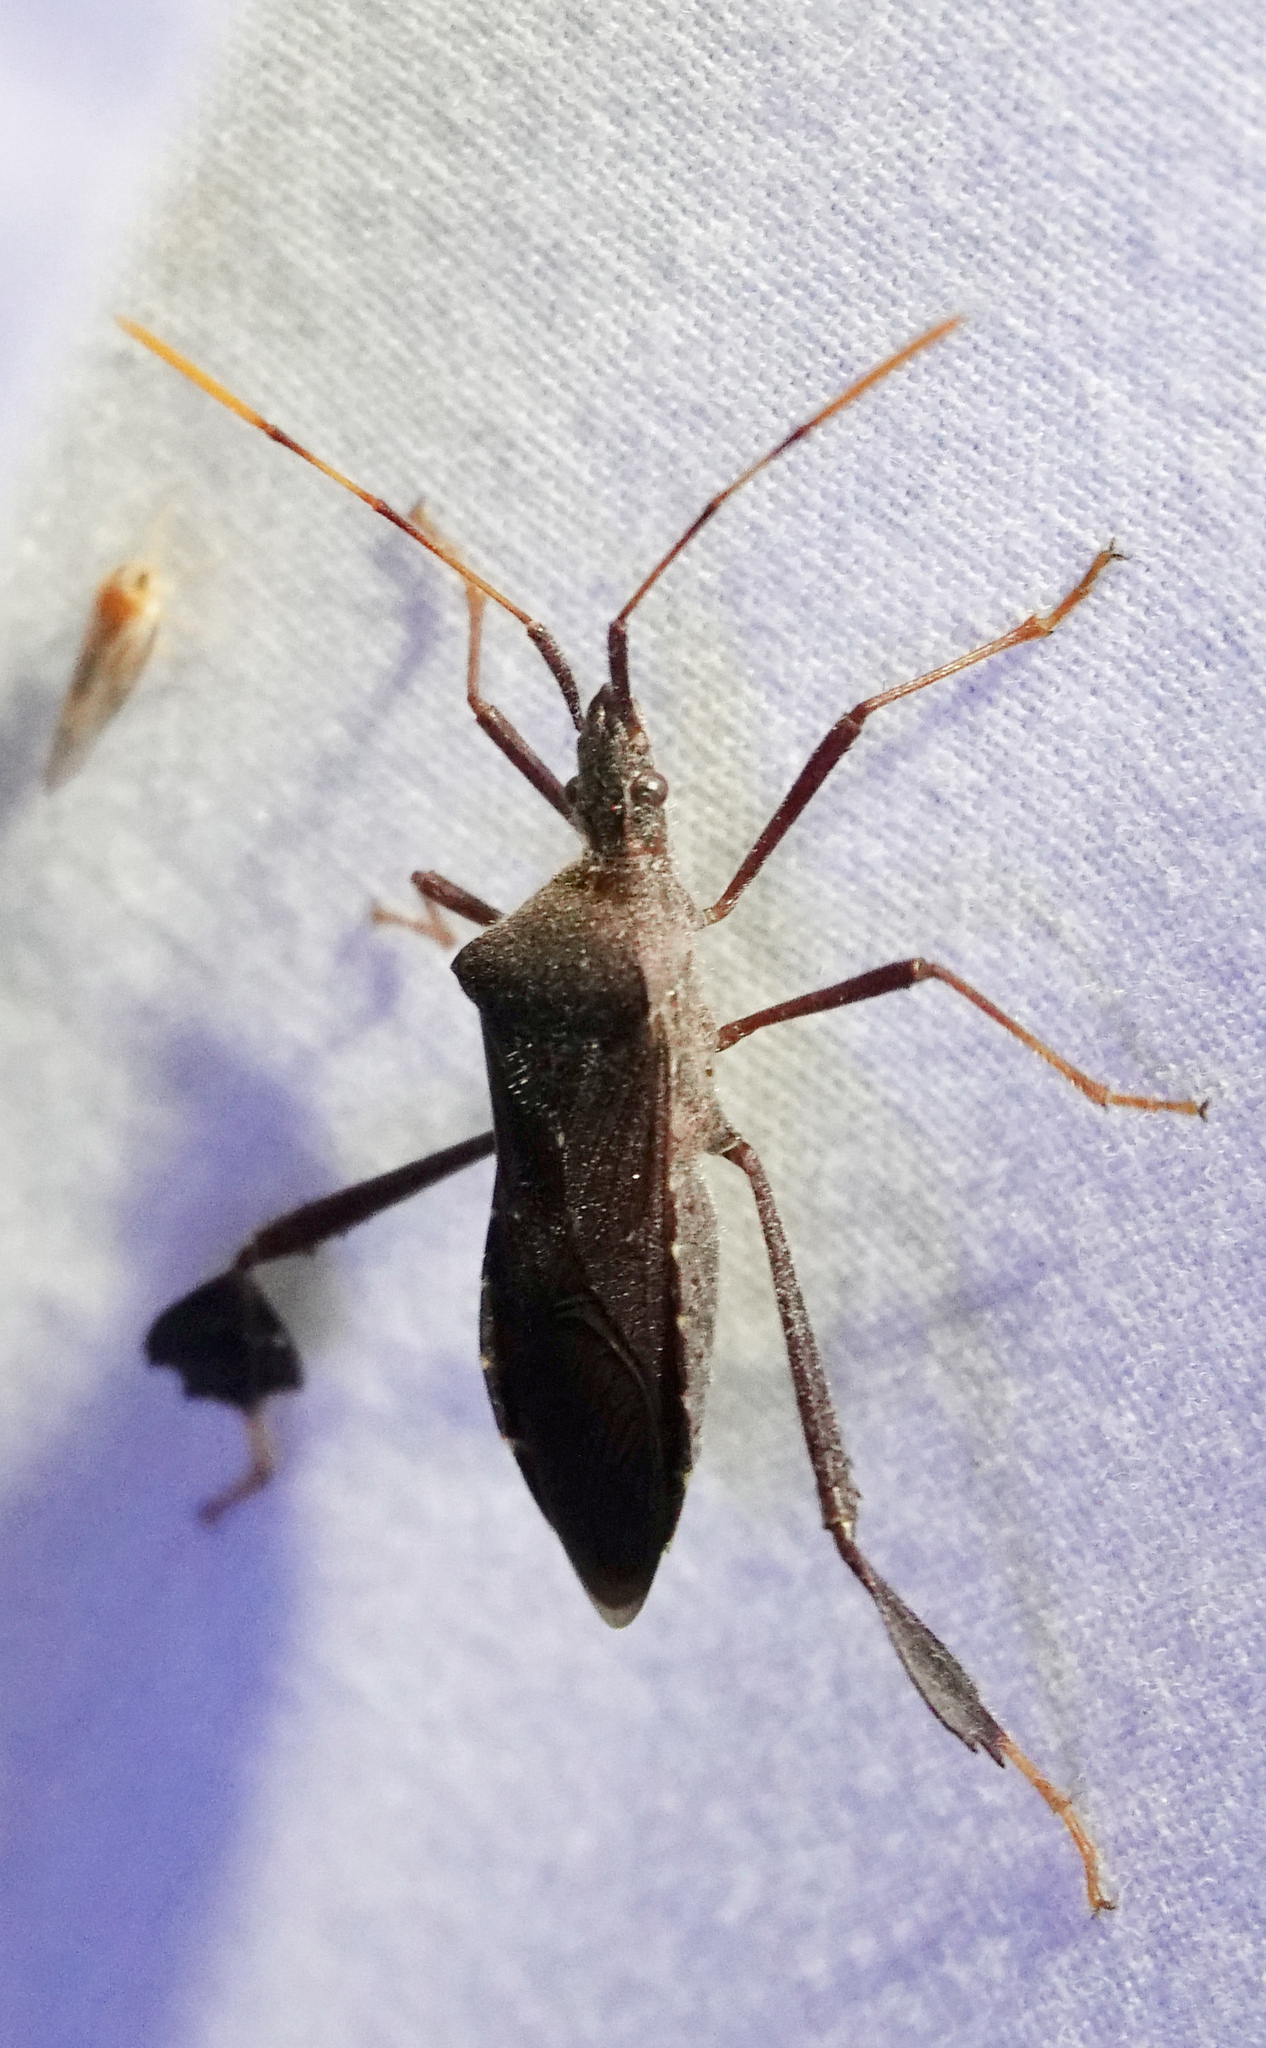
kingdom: Animalia
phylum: Arthropoda
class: Insecta
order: Hemiptera
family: Coreidae
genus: Leptoglossus
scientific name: Leptoglossus oppositus
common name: Northern leaf-footed bug
